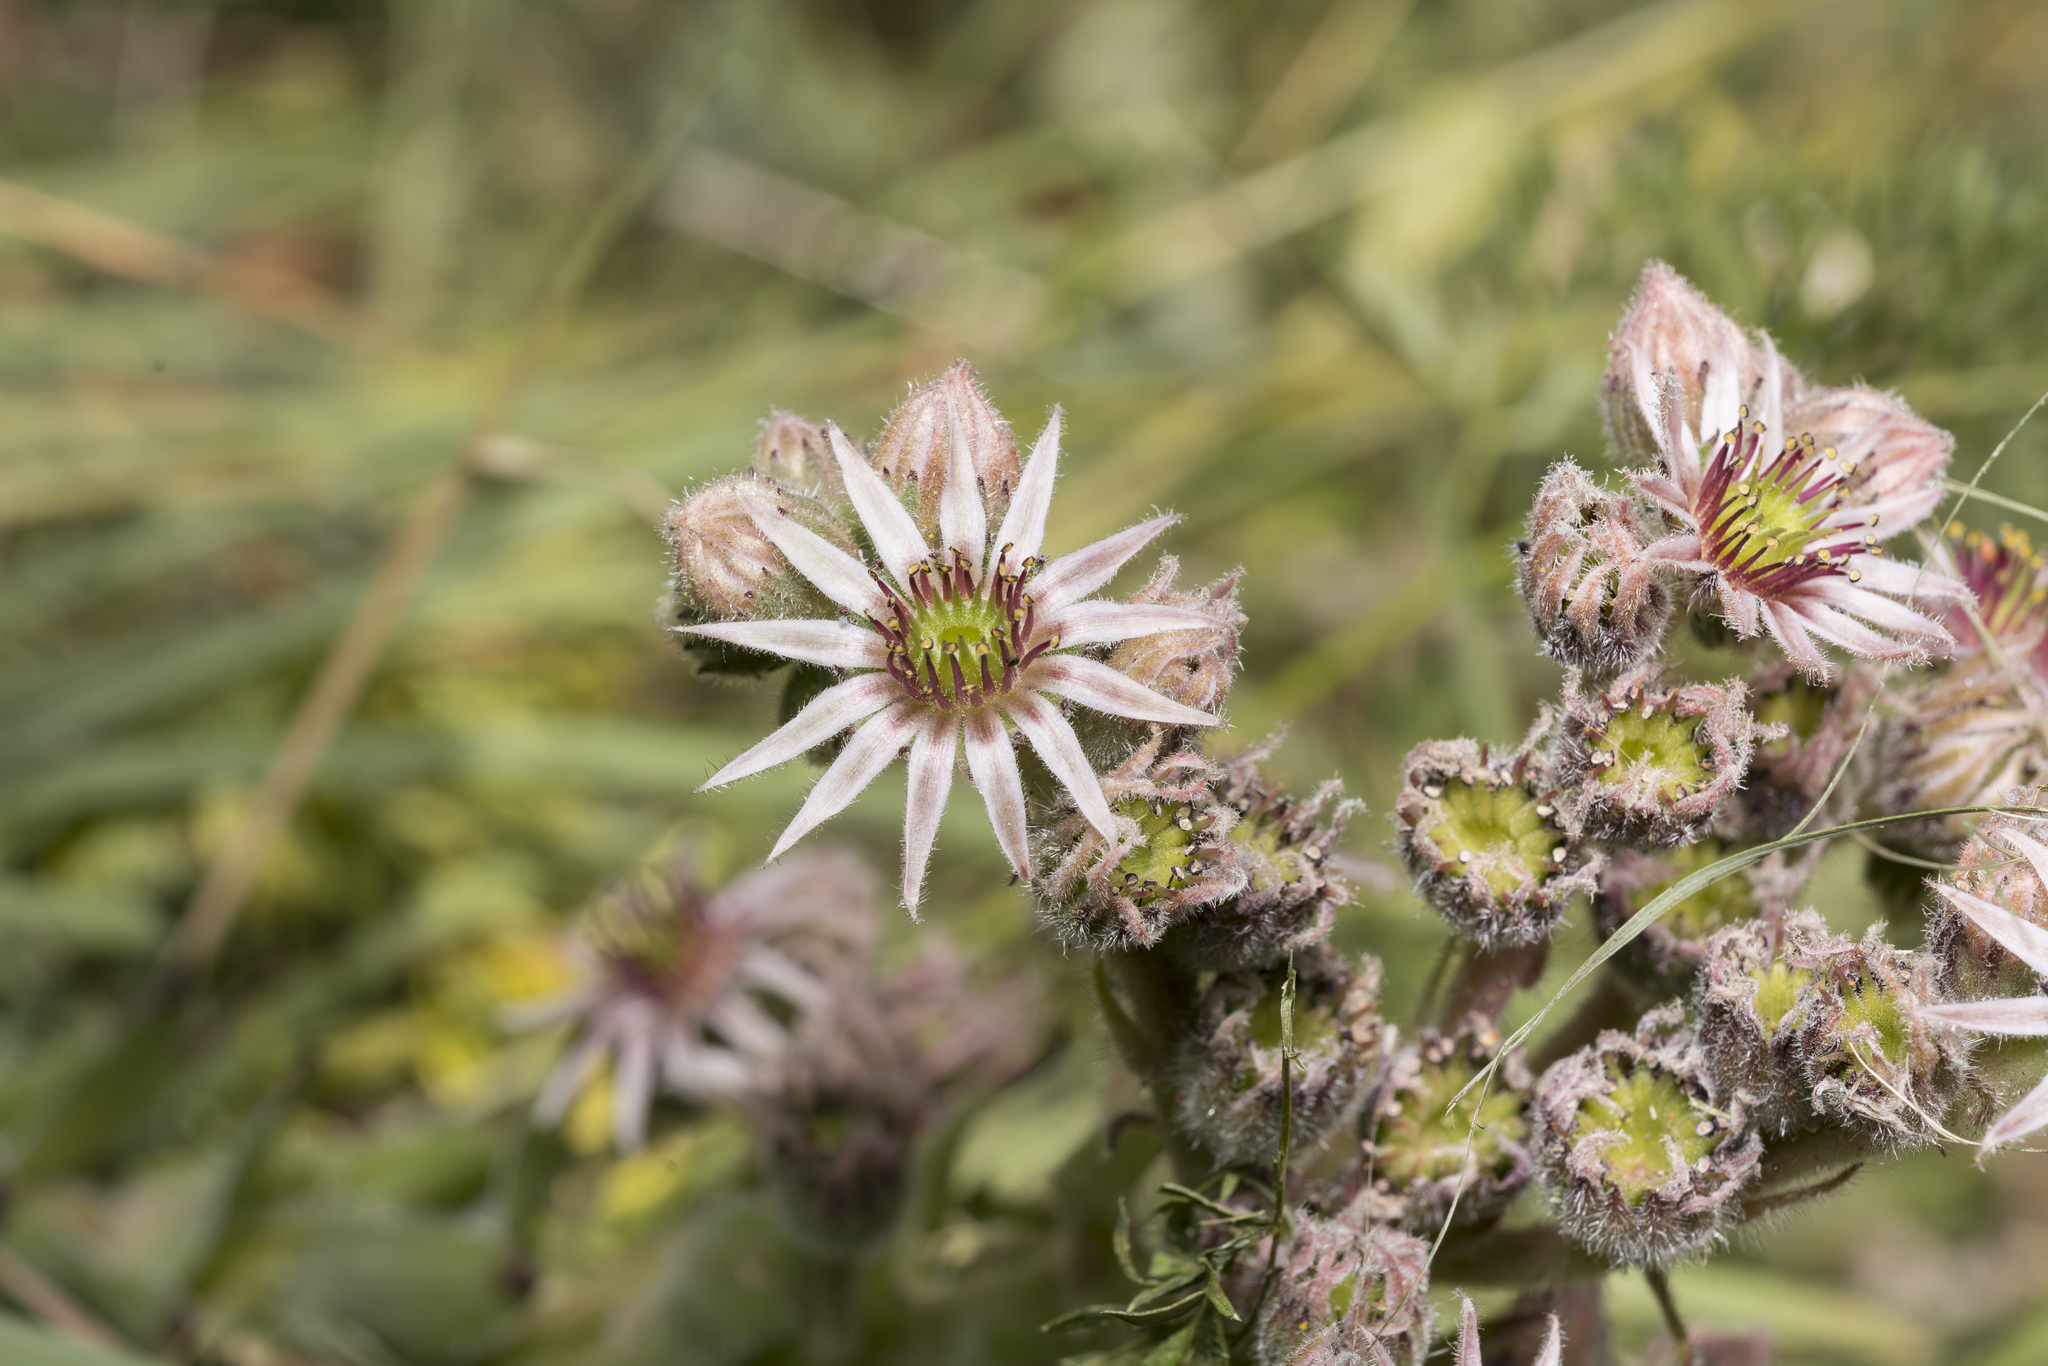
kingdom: Plantae
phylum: Tracheophyta
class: Magnoliopsida
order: Saxifragales
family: Crassulaceae
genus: Sempervivum
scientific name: Sempervivum tectorum
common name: House-leek
